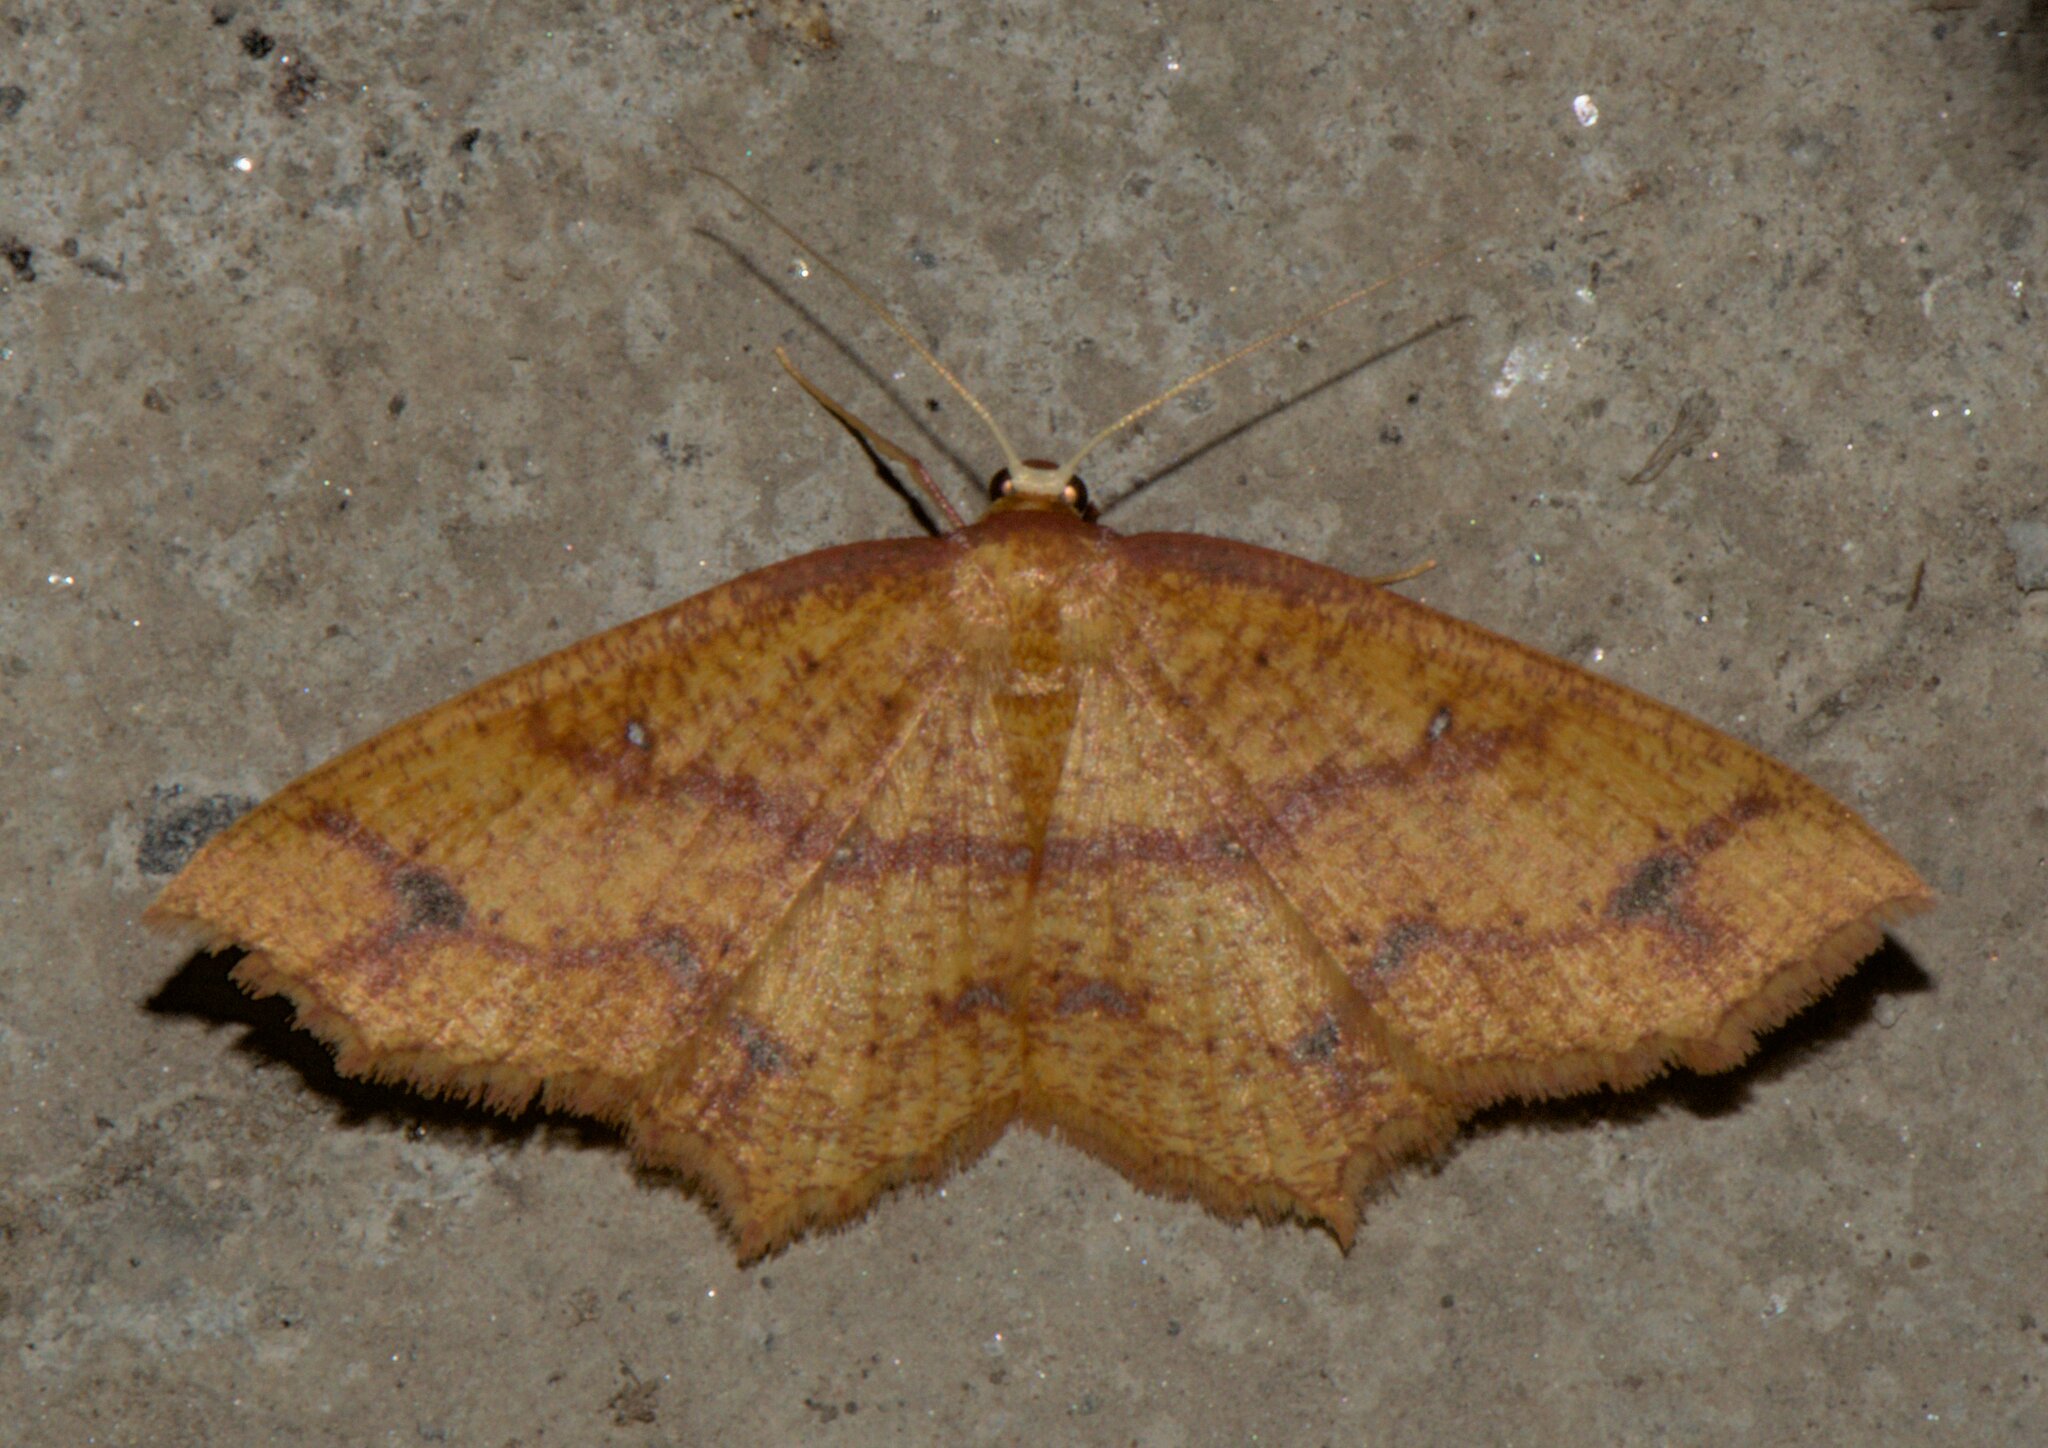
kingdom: Animalia
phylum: Arthropoda
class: Insecta
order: Lepidoptera
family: Geometridae
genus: Synegiodes
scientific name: Synegiodes hyriaria
